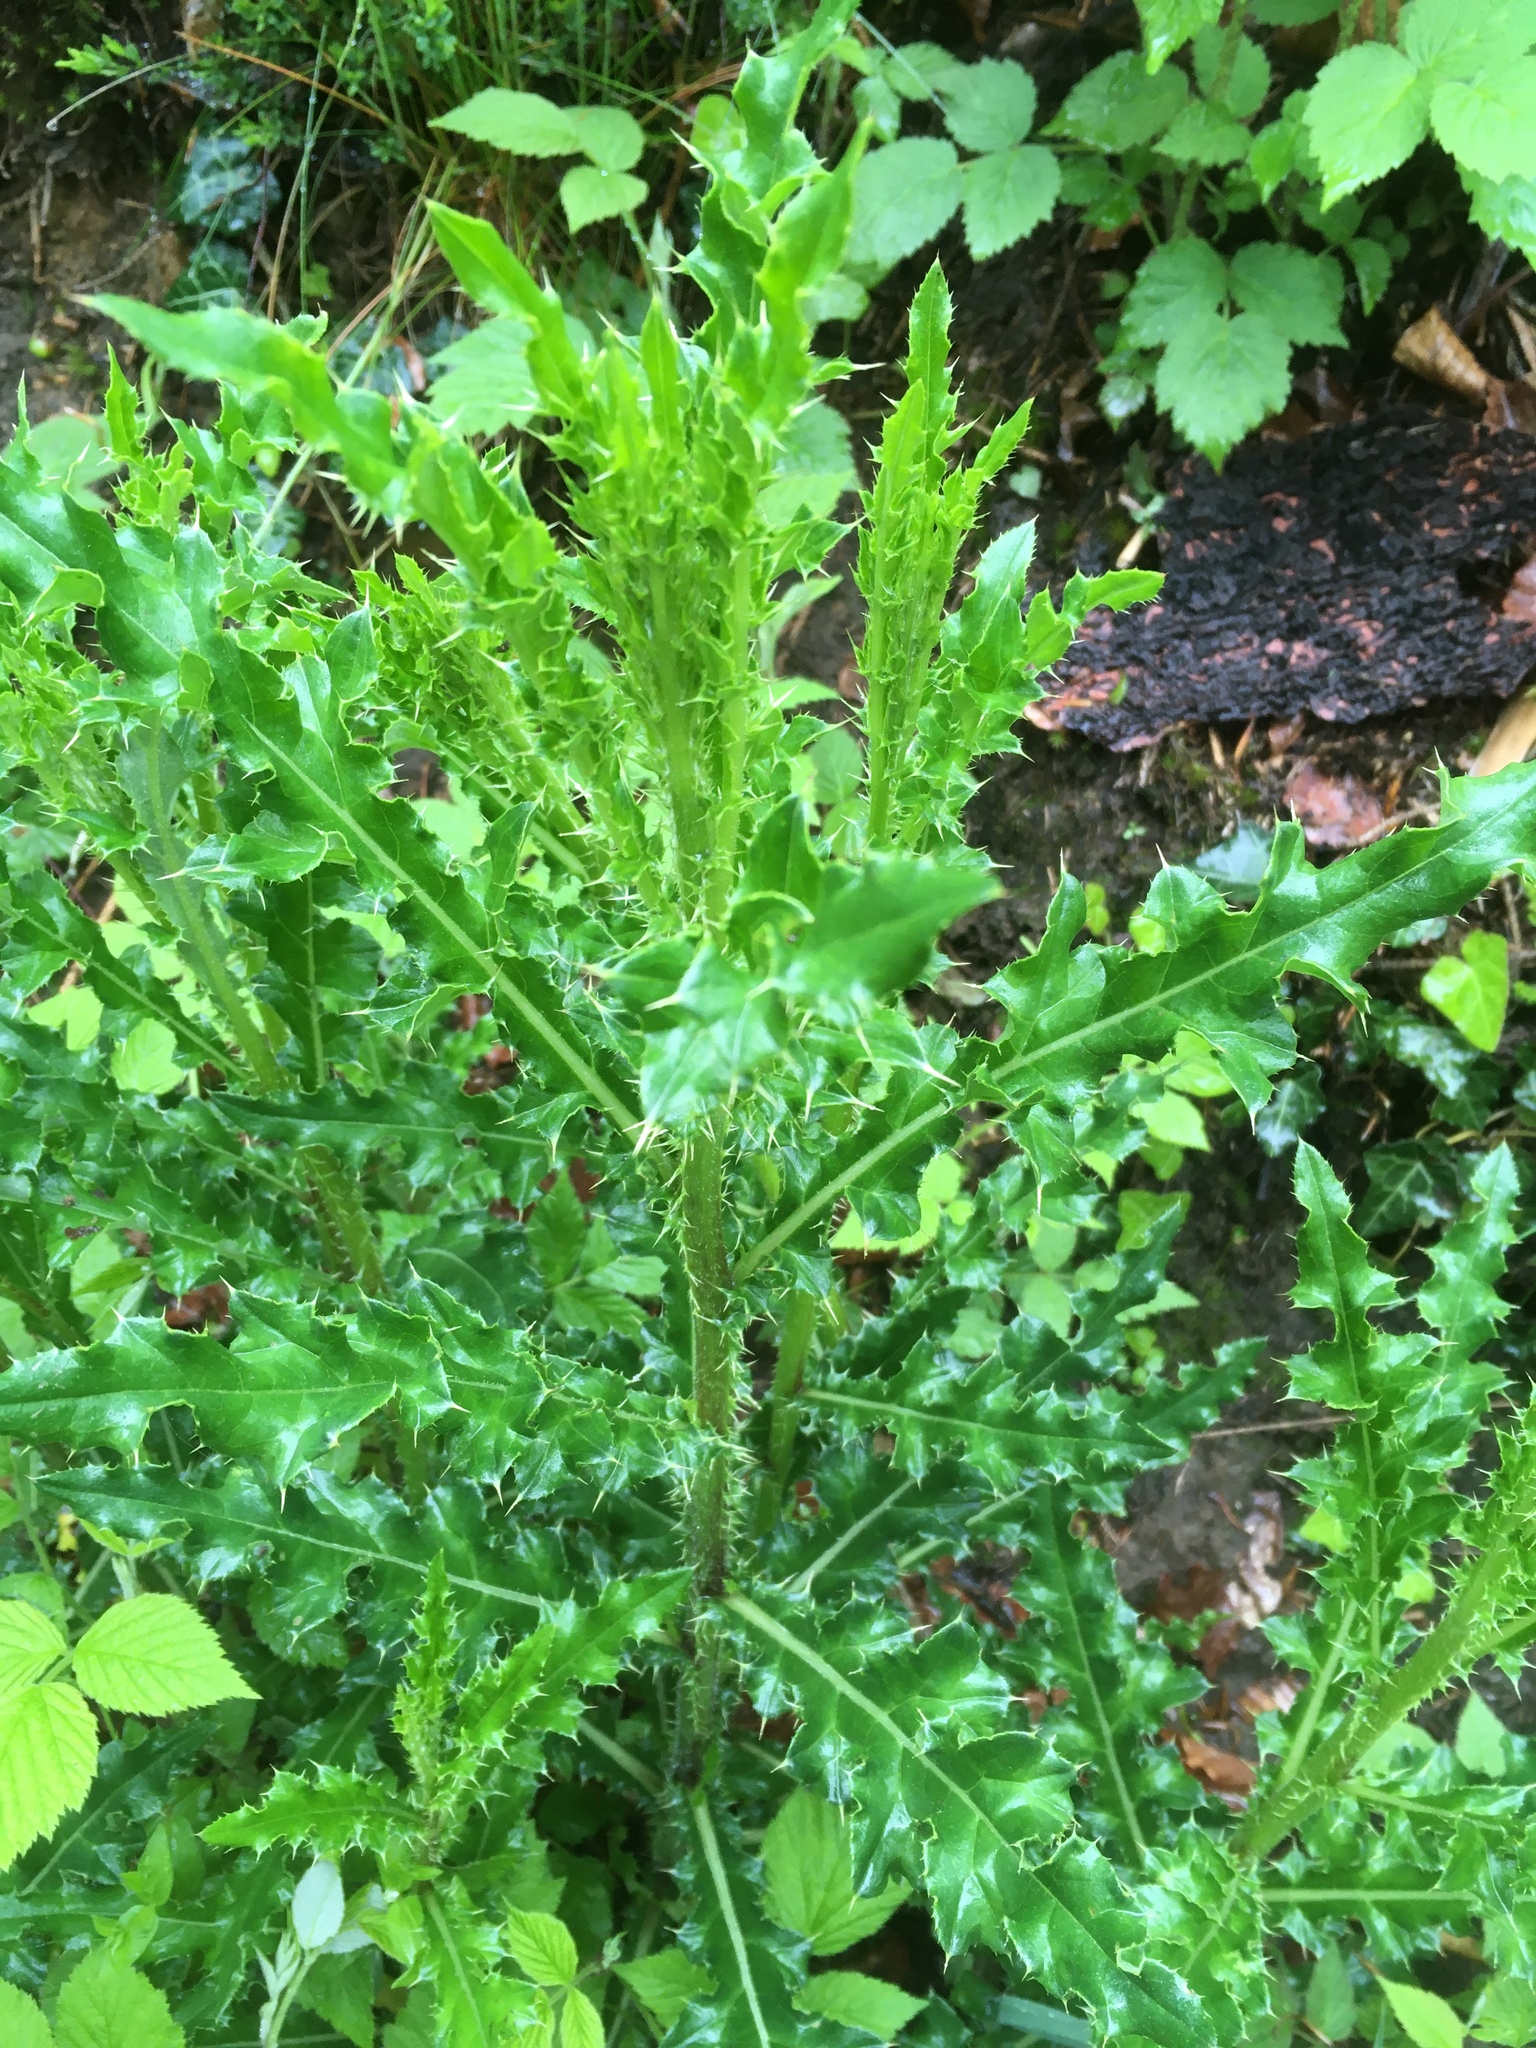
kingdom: Plantae
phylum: Tracheophyta
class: Magnoliopsida
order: Asterales
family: Asteraceae
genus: Cirsium
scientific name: Cirsium arvense
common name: Creeping thistle
